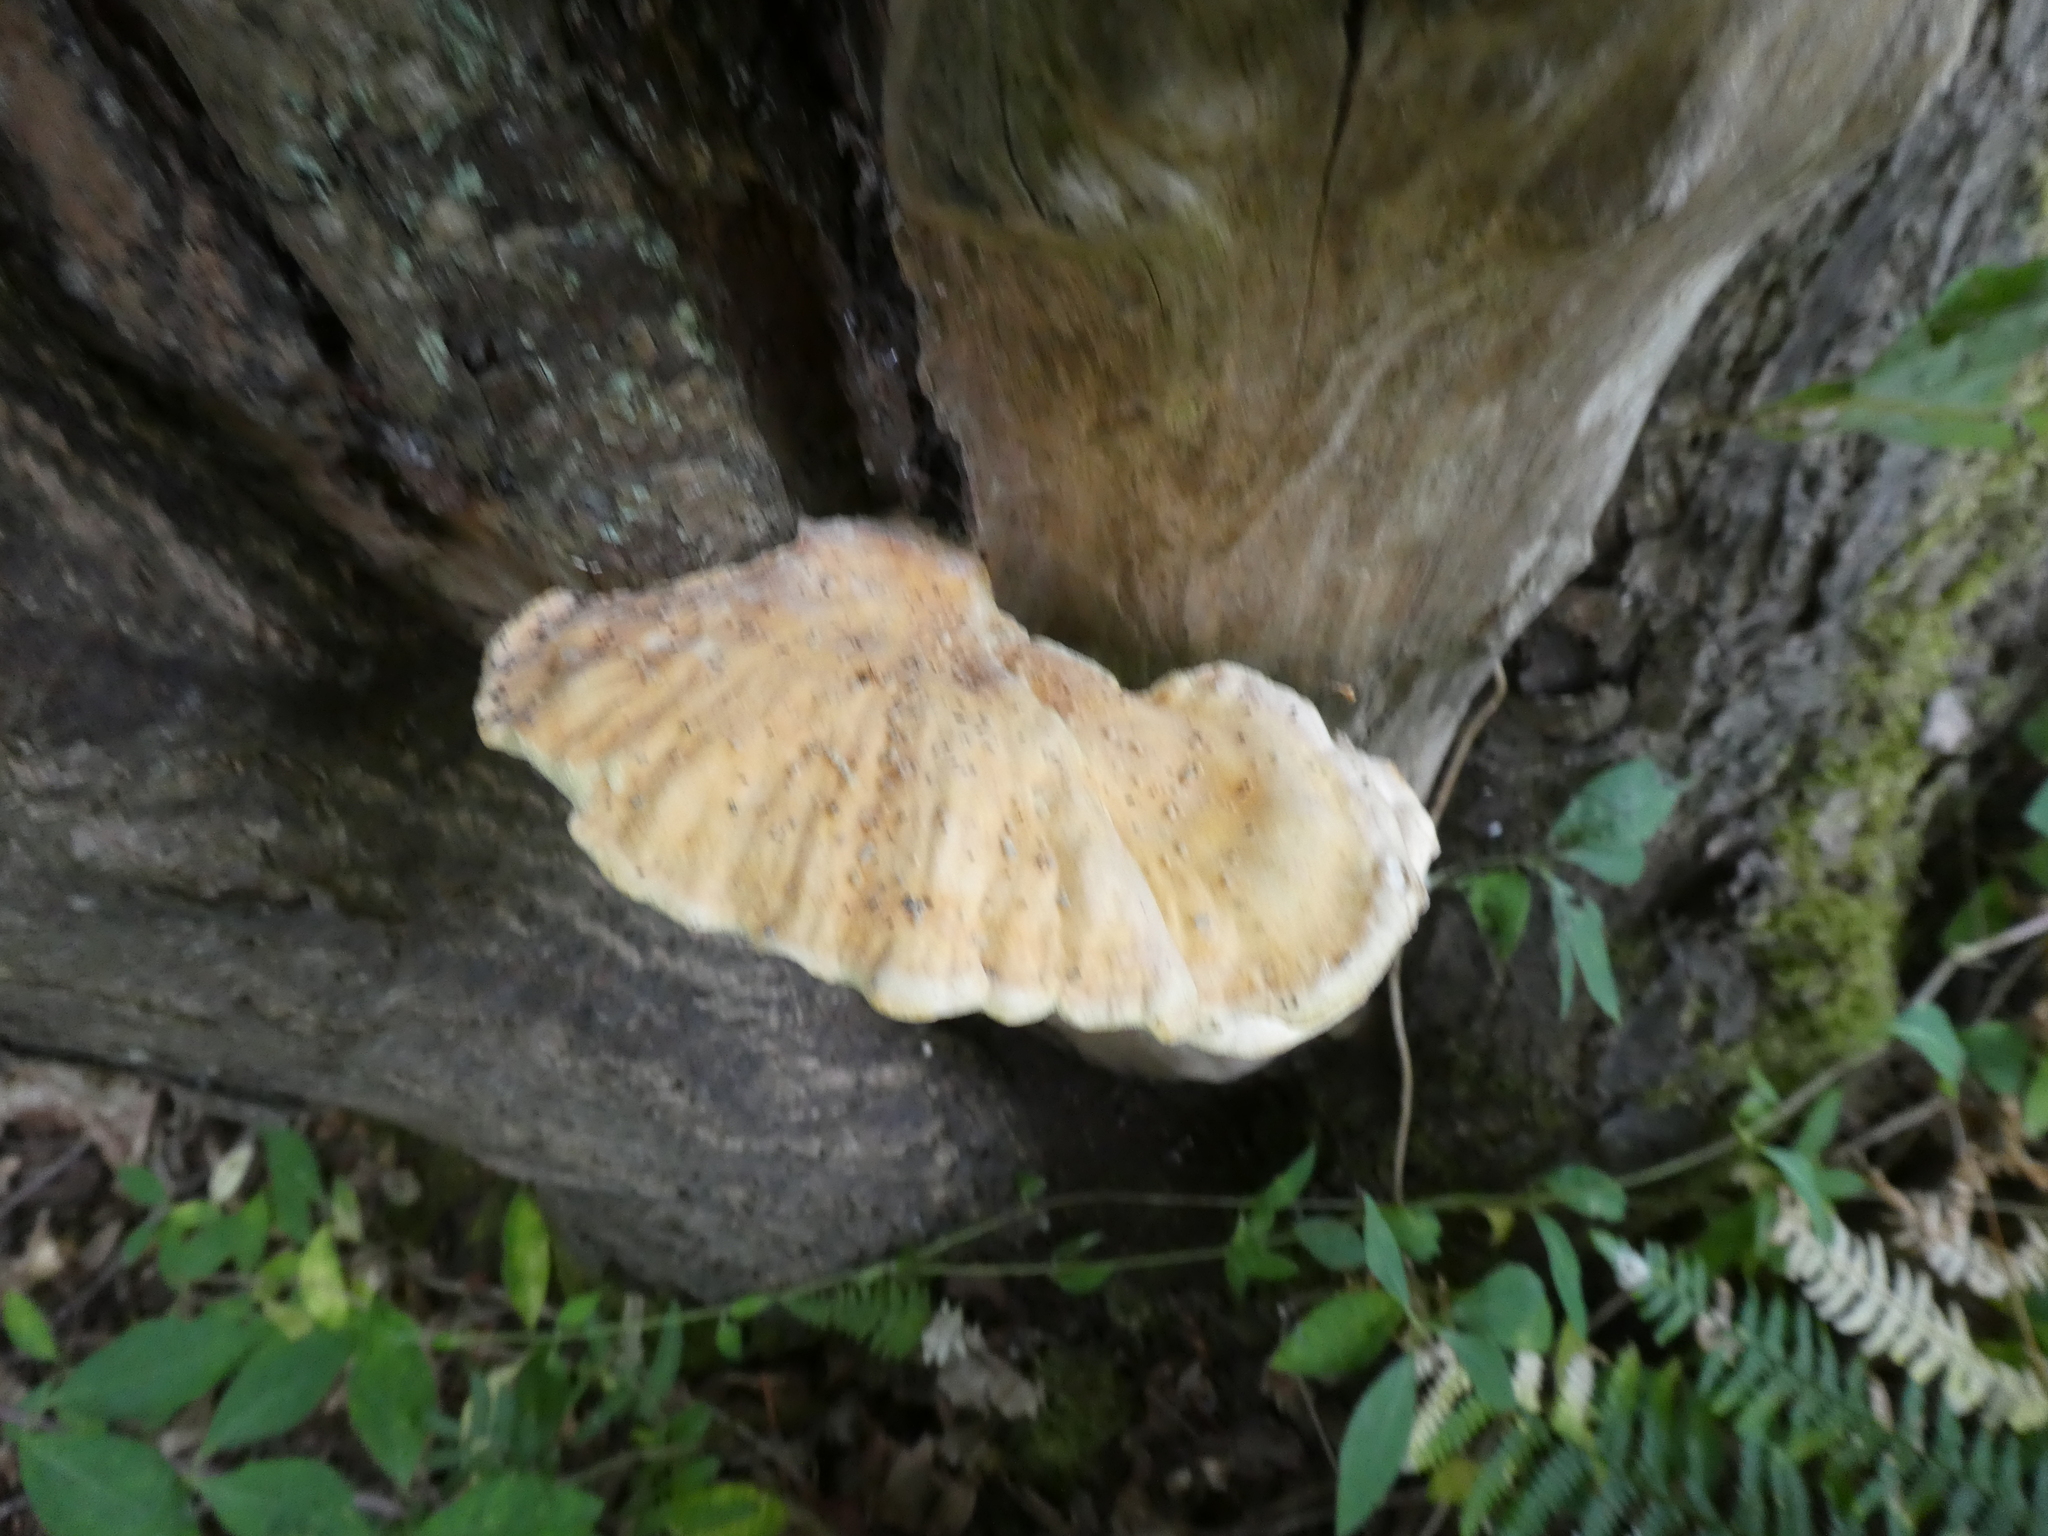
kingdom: Fungi
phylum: Basidiomycota
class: Agaricomycetes
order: Polyporales
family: Laetiporaceae
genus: Laetiporus
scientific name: Laetiporus sulphureus
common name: Chicken of the woods
